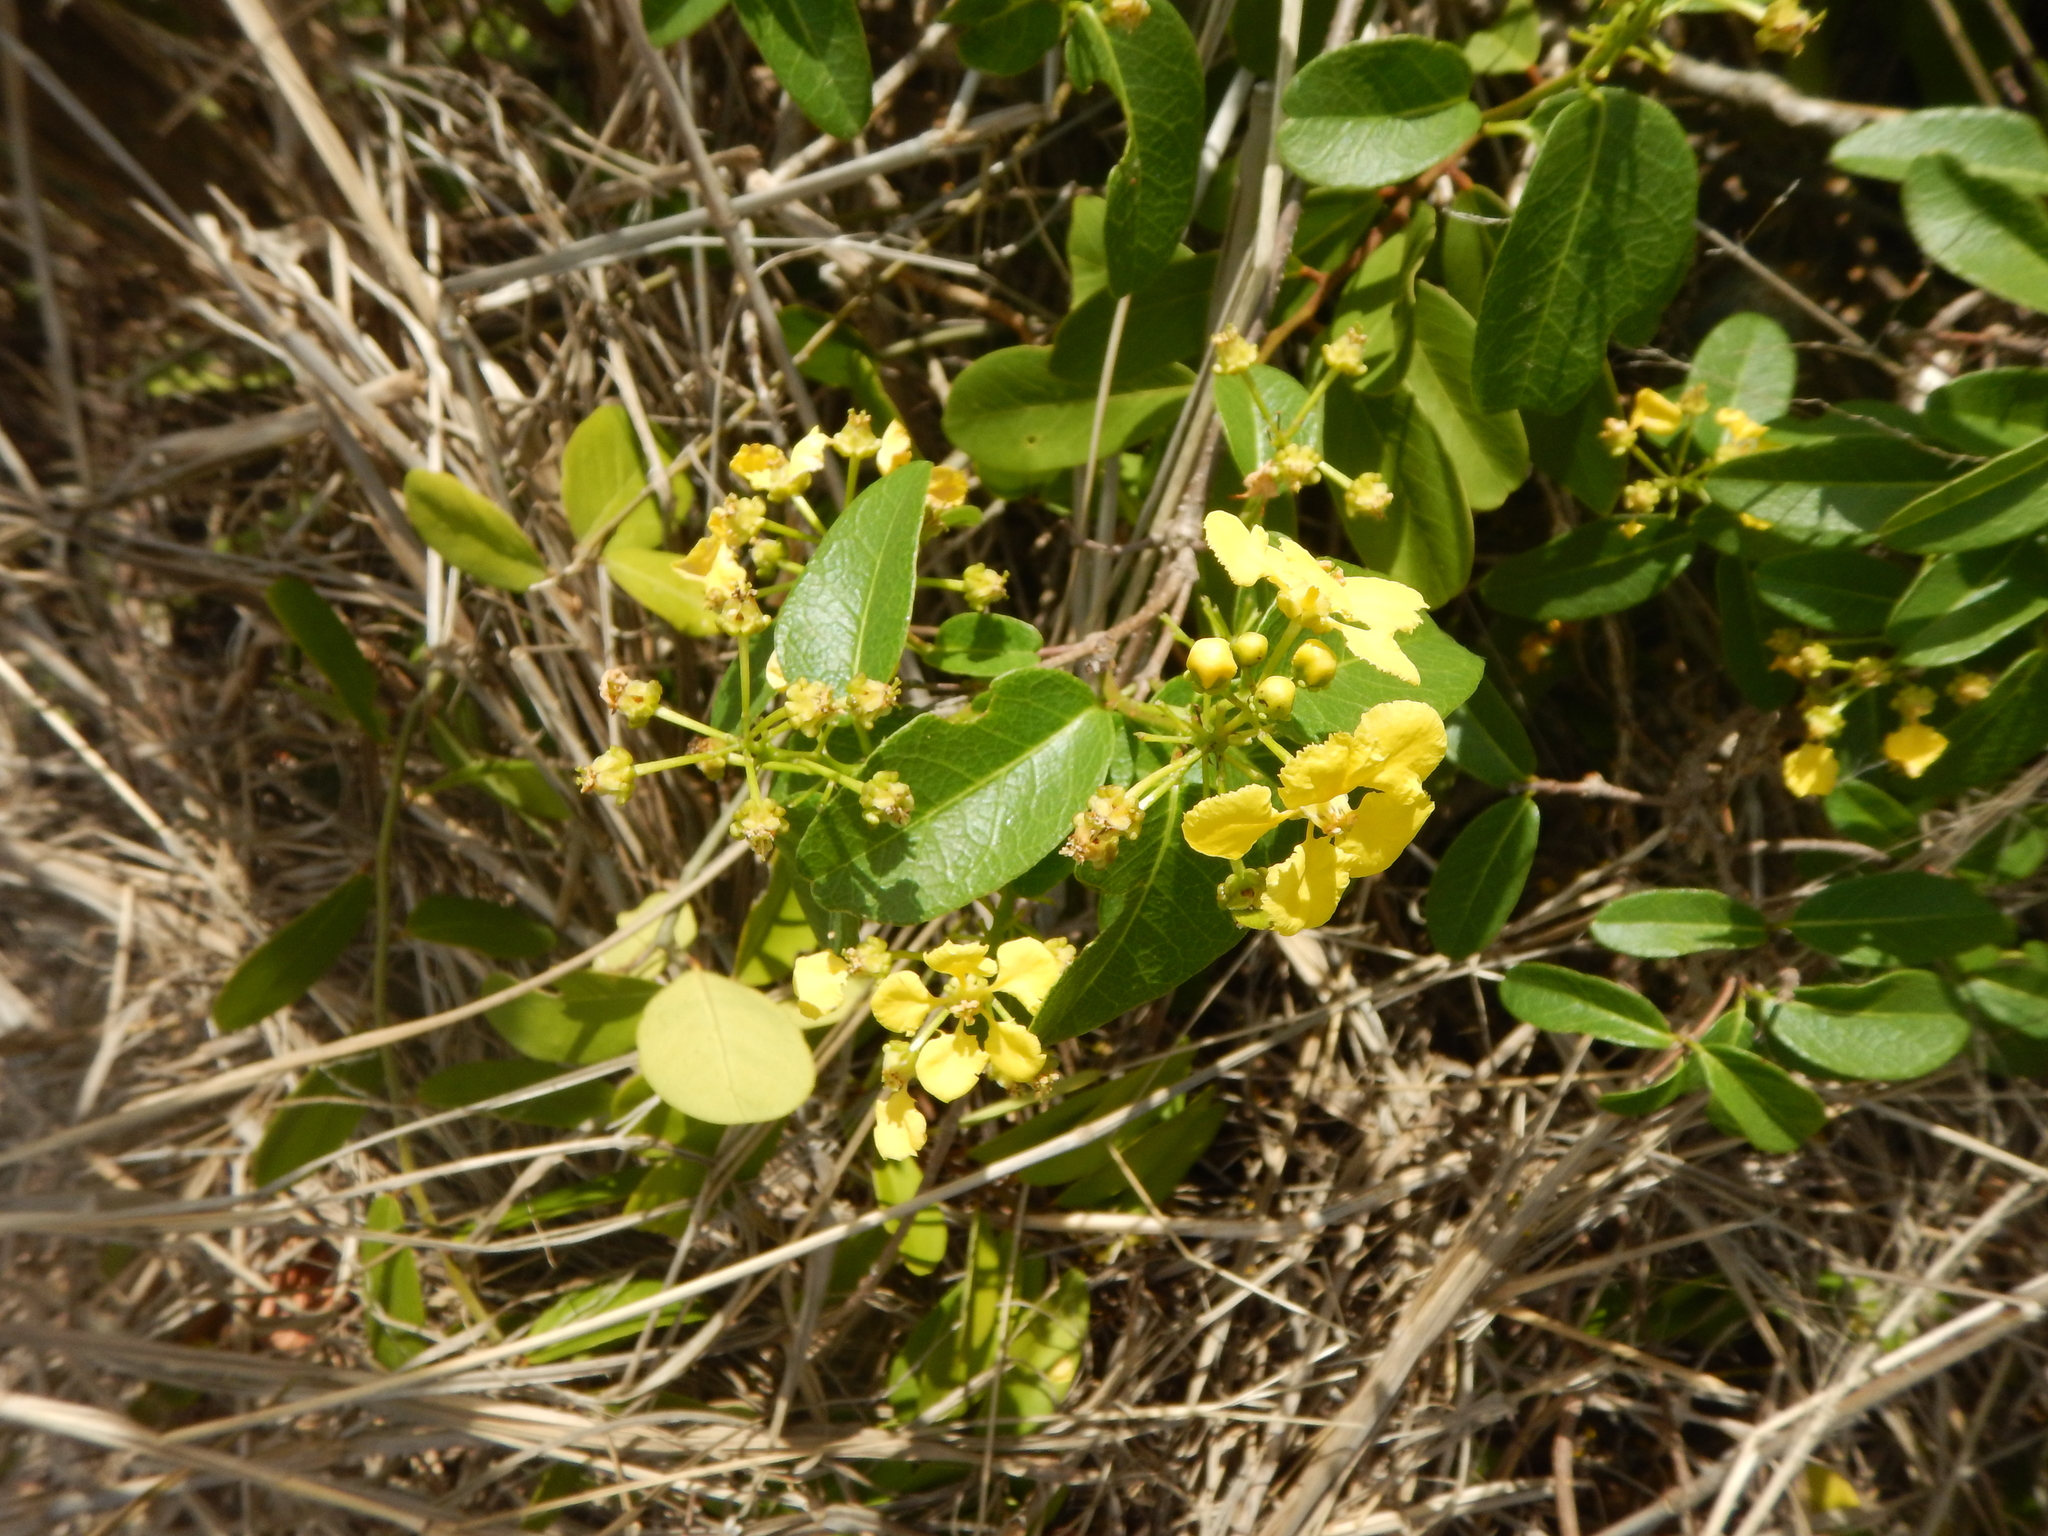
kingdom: Plantae
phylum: Tracheophyta
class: Magnoliopsida
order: Malpighiales
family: Malpighiaceae
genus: Stigmaphyllon
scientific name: Stigmaphyllon emarginatum
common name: Monarch amazonvine
